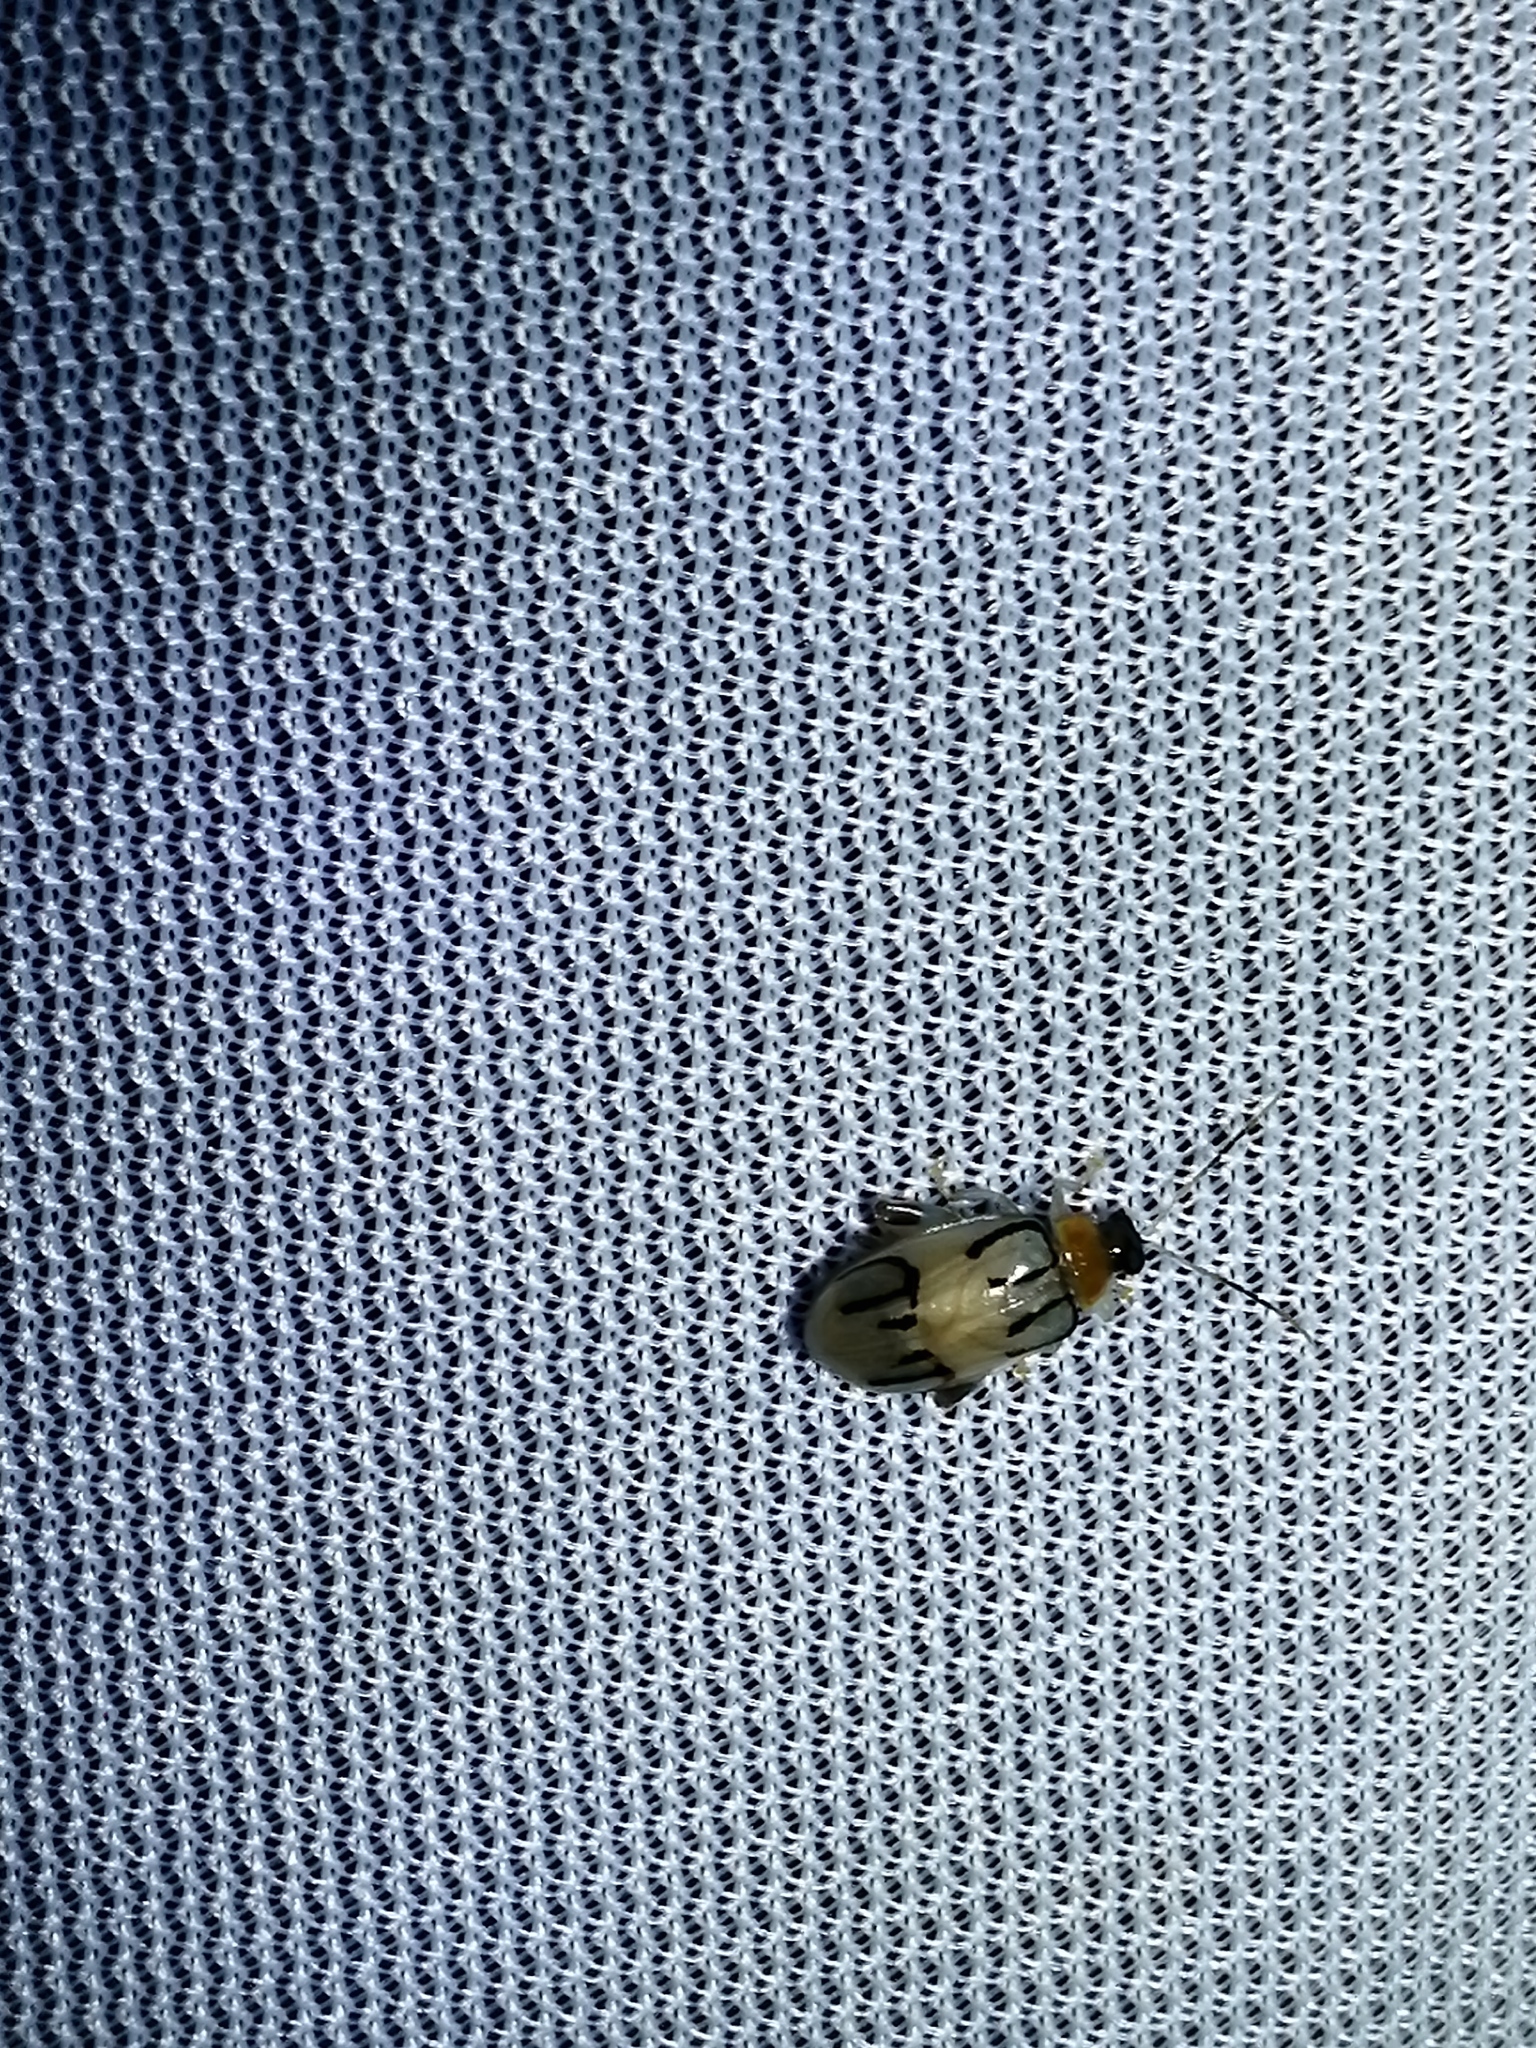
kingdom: Animalia
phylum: Arthropoda
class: Insecta
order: Coleoptera
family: Chrysomelidae
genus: Walterianella
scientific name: Walterianella
